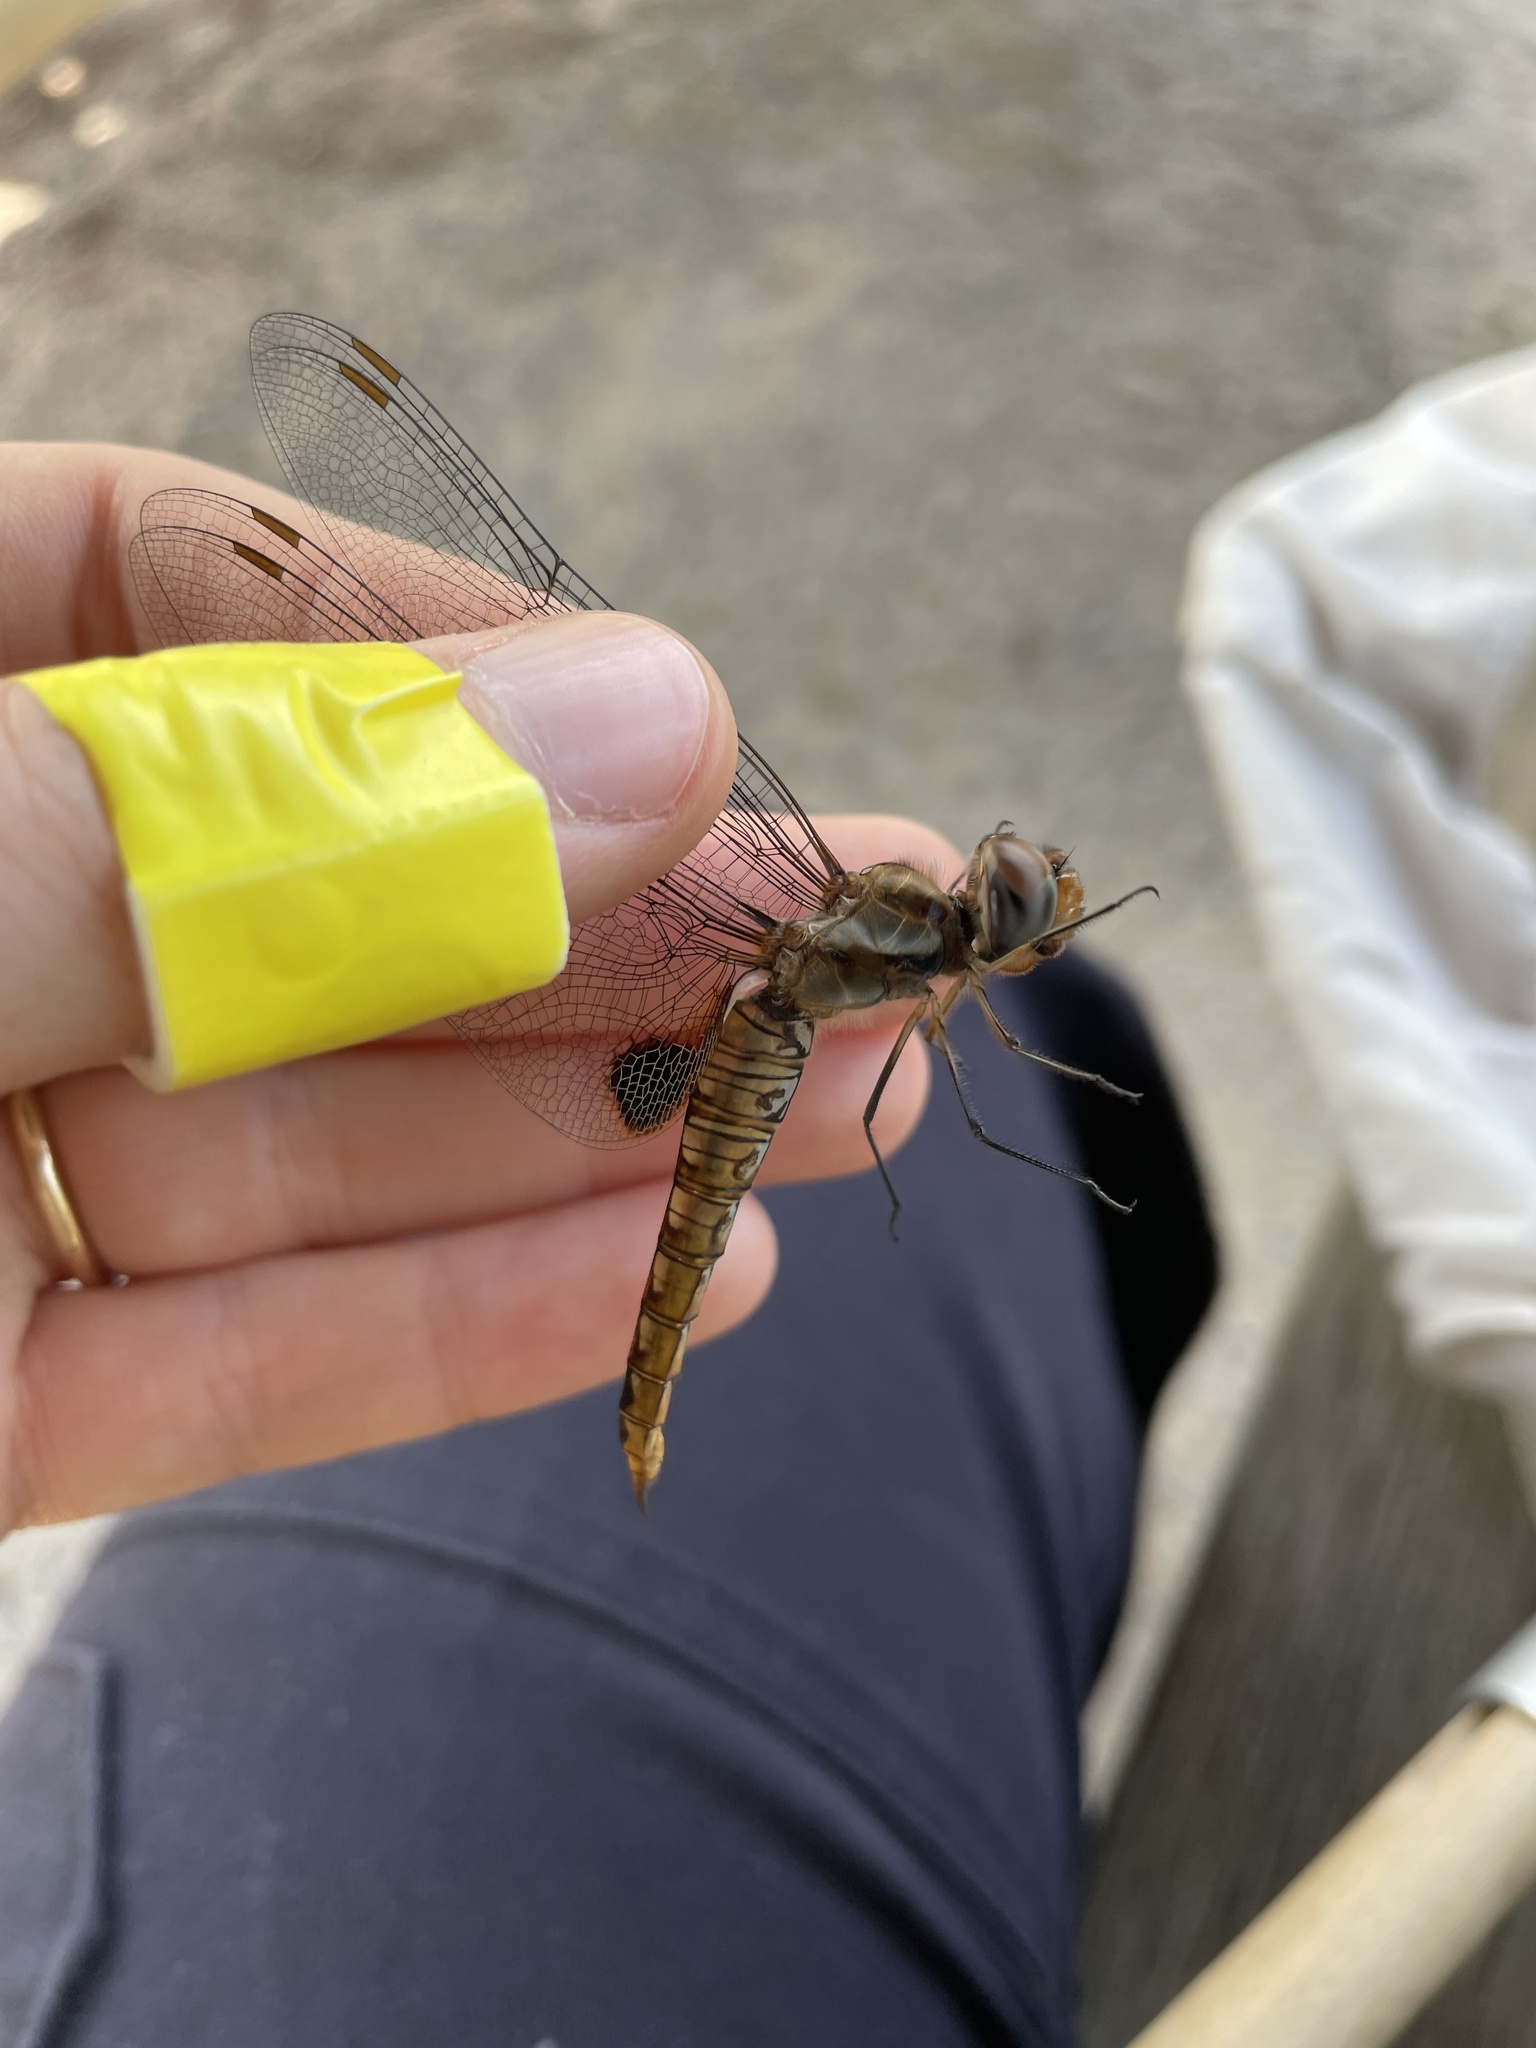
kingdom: Animalia
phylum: Arthropoda
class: Insecta
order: Odonata
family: Libellulidae
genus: Pantala
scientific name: Pantala hymenaea
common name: Spot-winged glider
